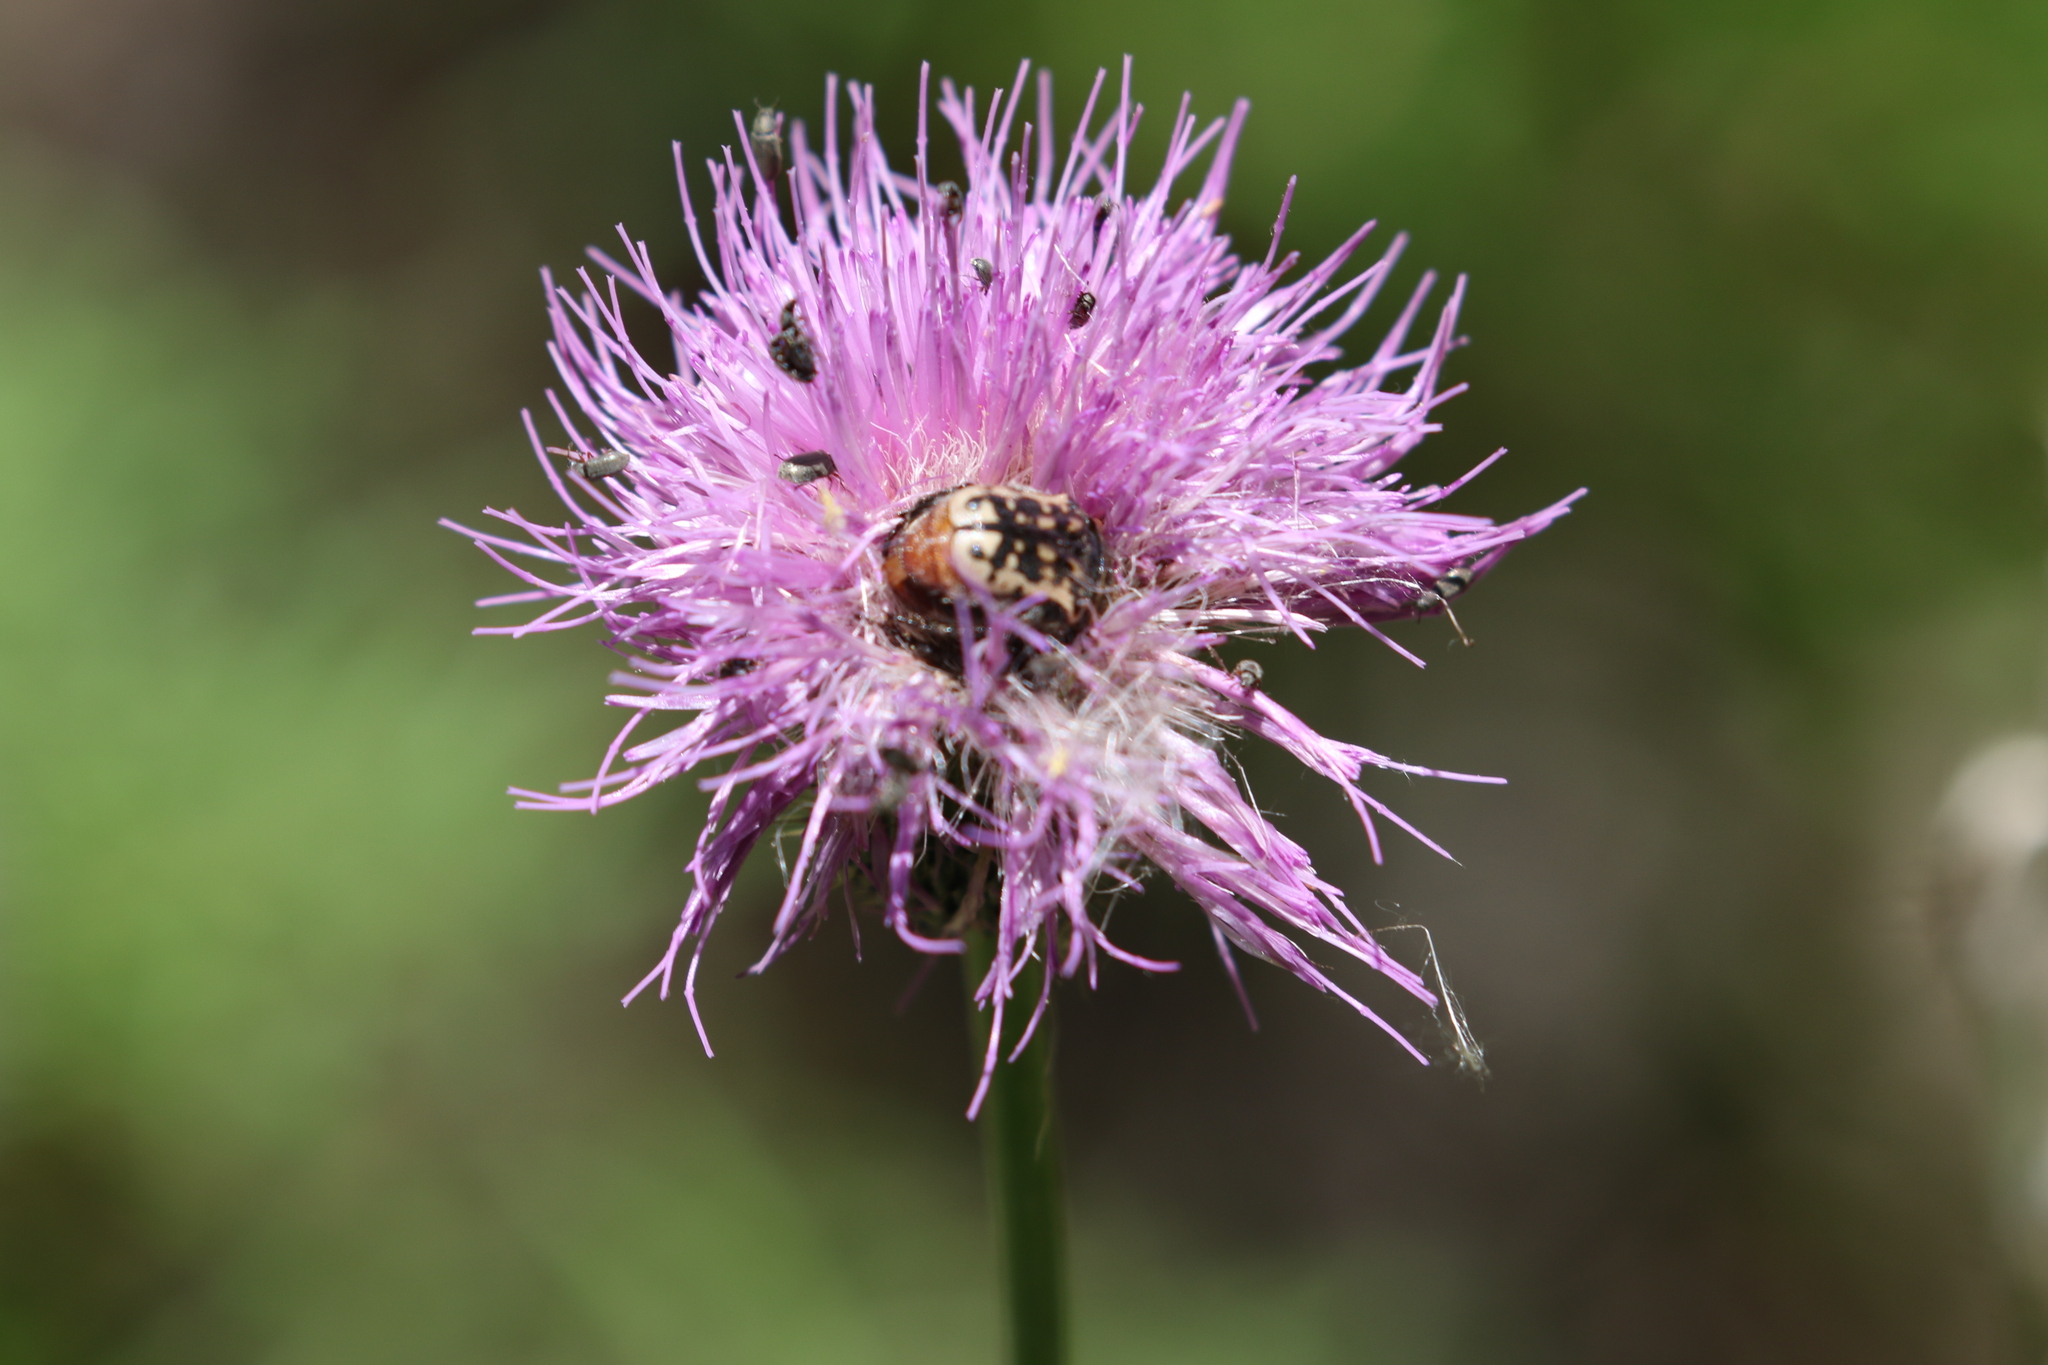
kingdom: Animalia
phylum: Arthropoda
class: Insecta
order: Coleoptera
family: Scarabaeidae
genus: Euphoria
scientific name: Euphoria kernii
